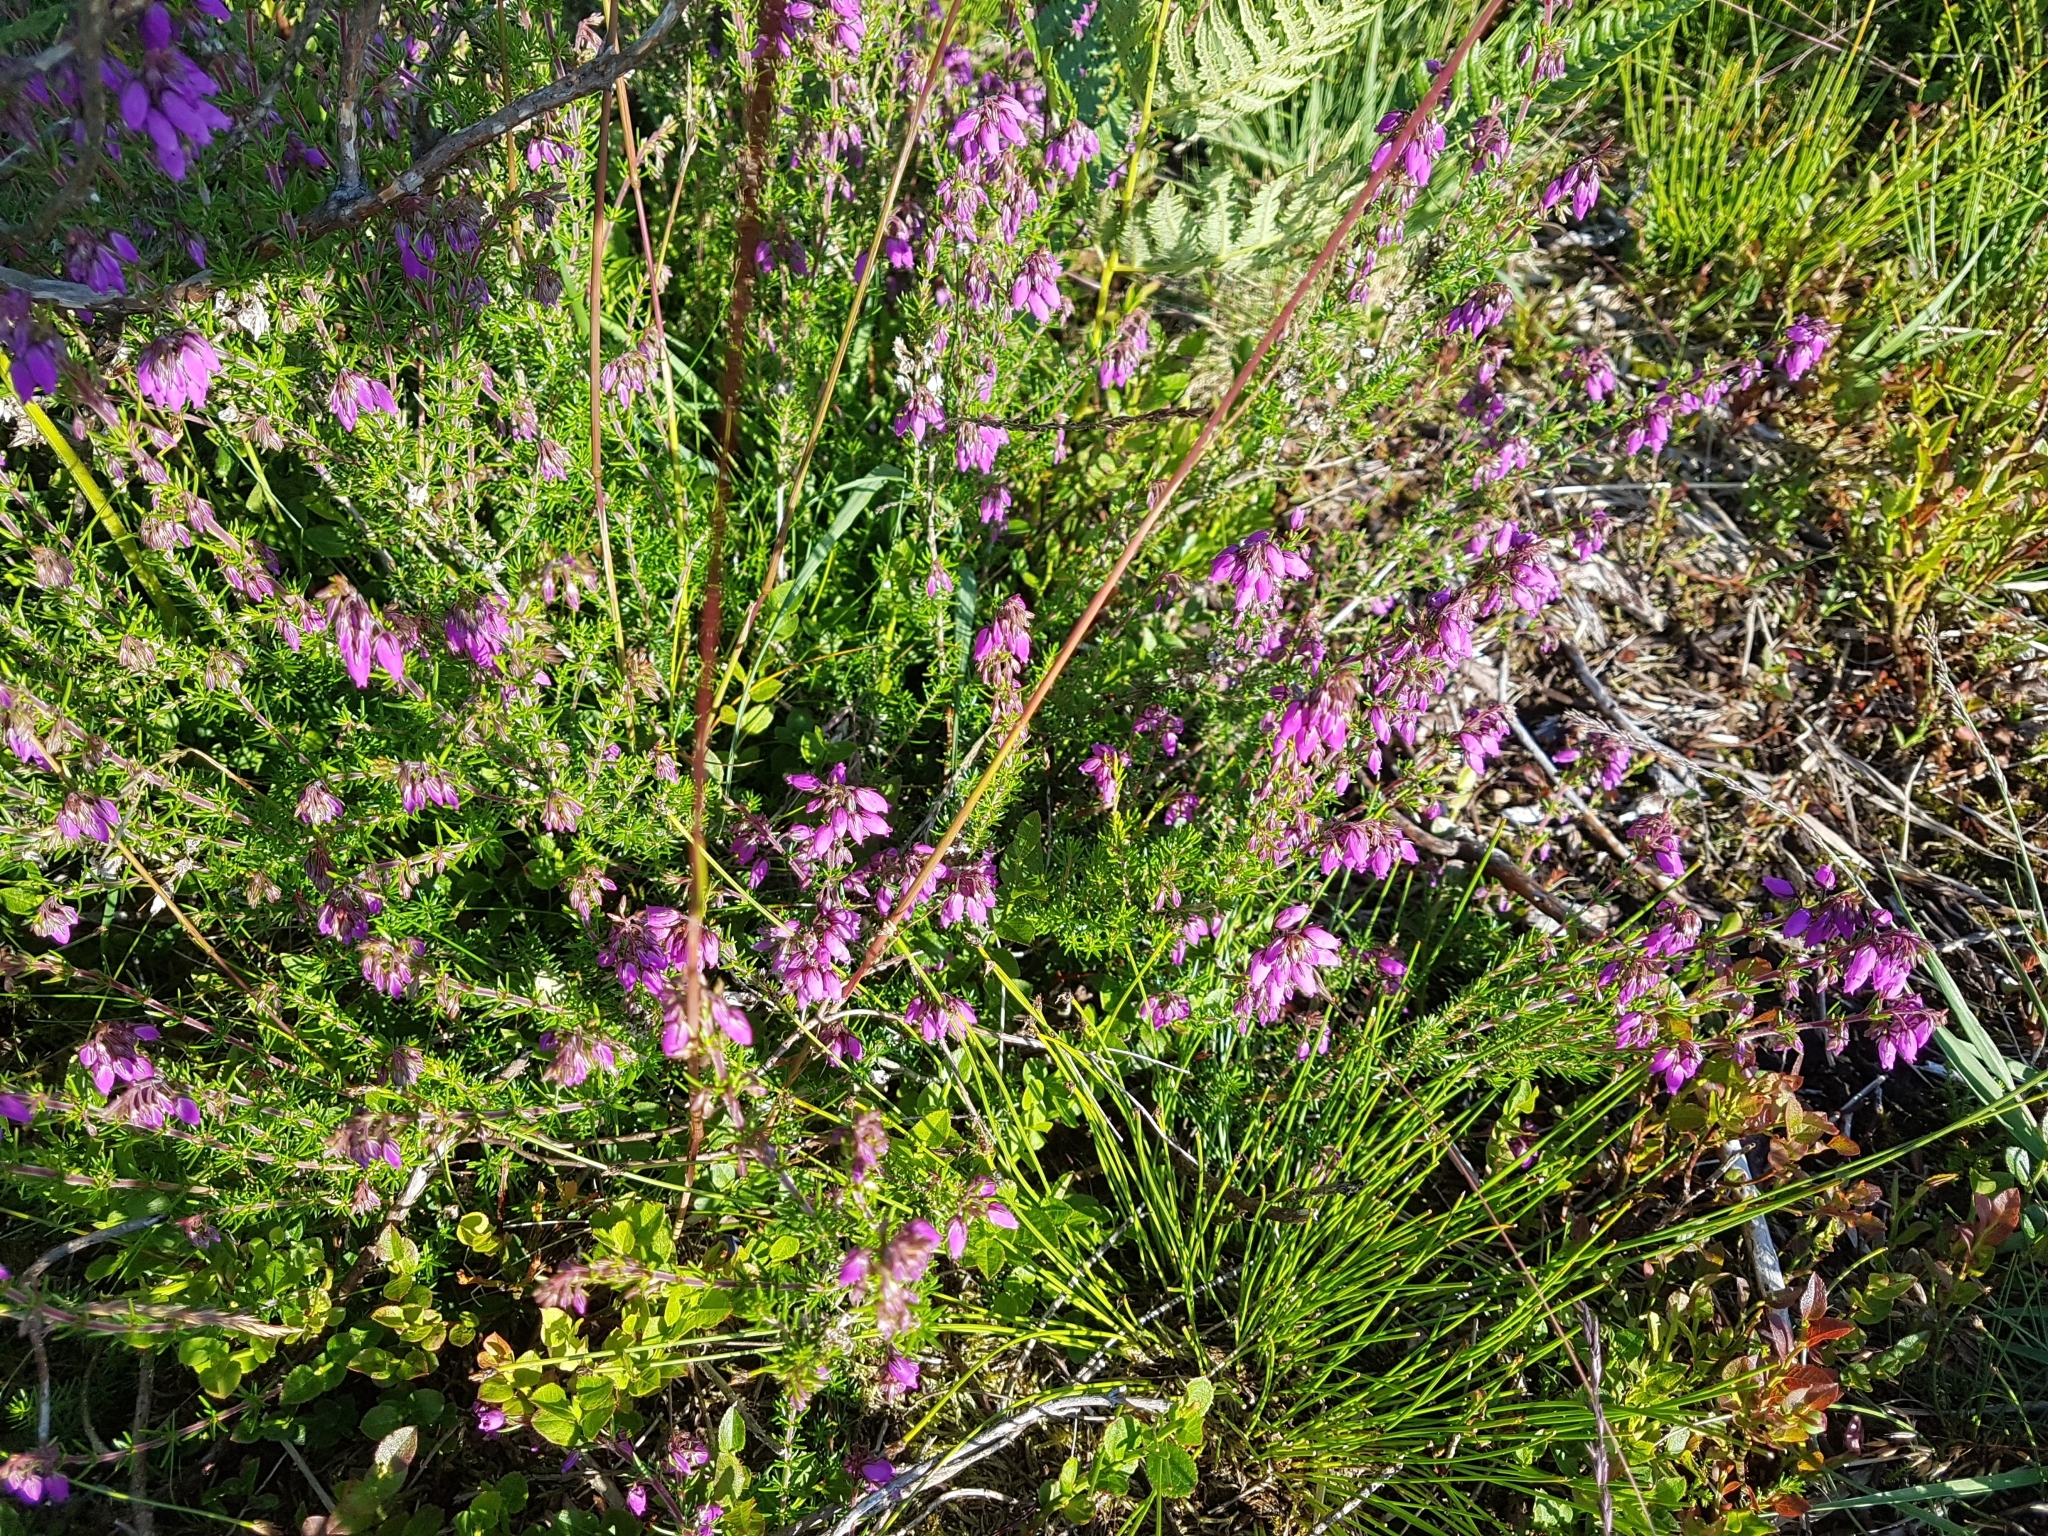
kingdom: Plantae
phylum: Tracheophyta
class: Magnoliopsida
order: Ericales
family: Ericaceae
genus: Erica
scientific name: Erica cinerea
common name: Bell heather
